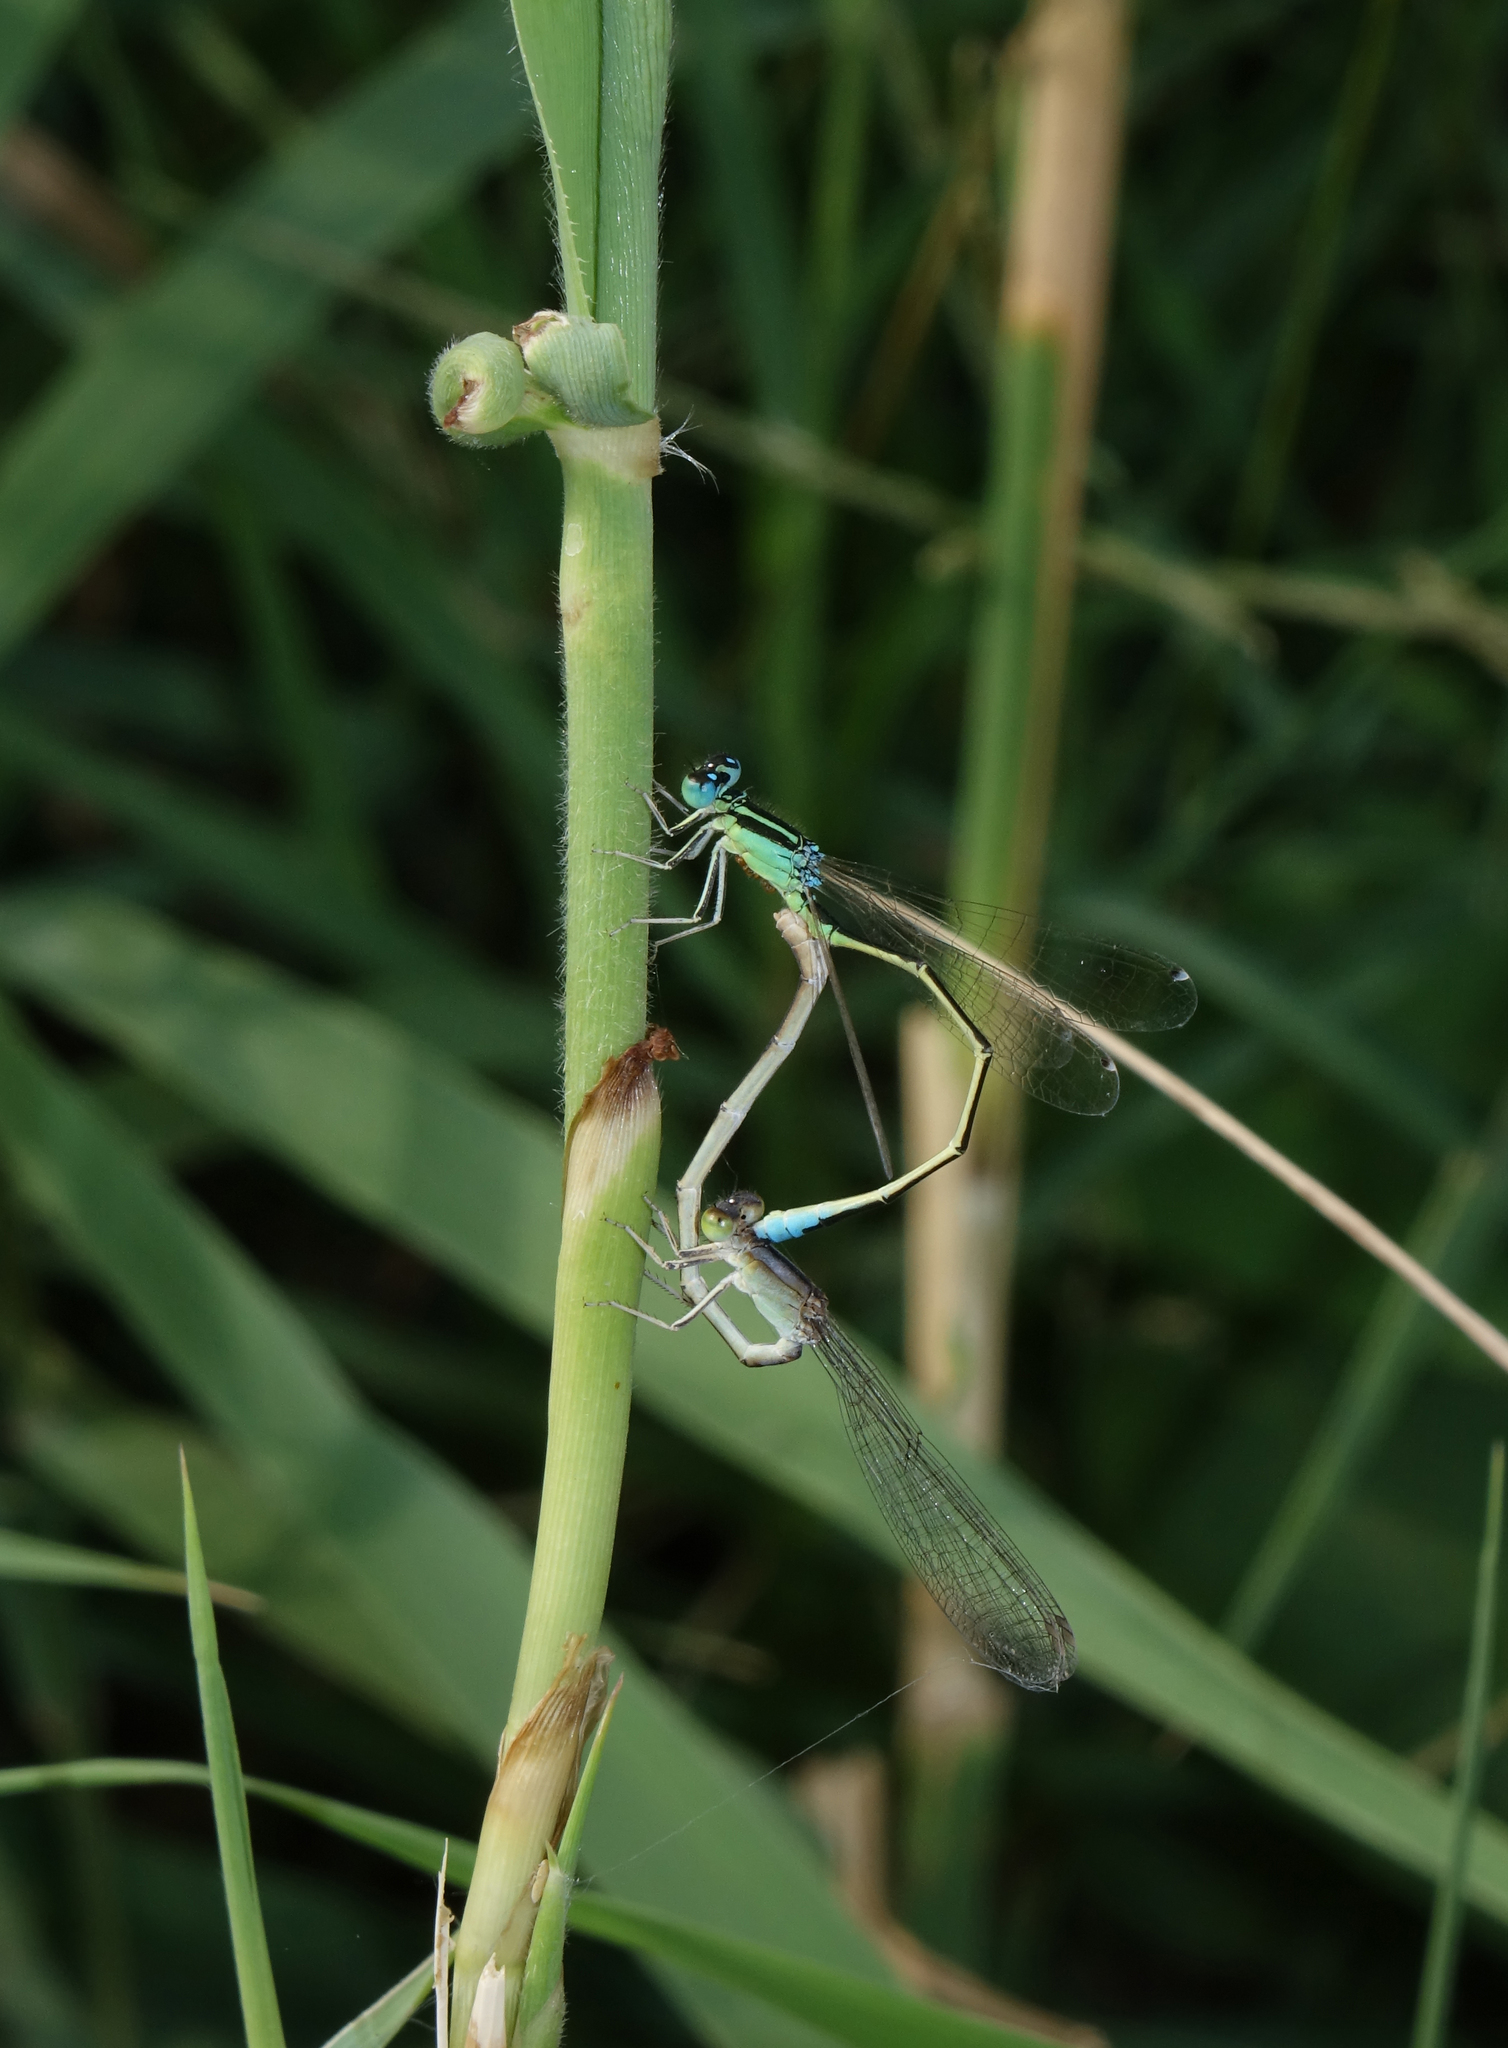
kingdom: Animalia
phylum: Arthropoda
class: Insecta
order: Odonata
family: Coenagrionidae
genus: Ischnura
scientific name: Ischnura pumilio
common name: Scarce blue-tailed damselfly
